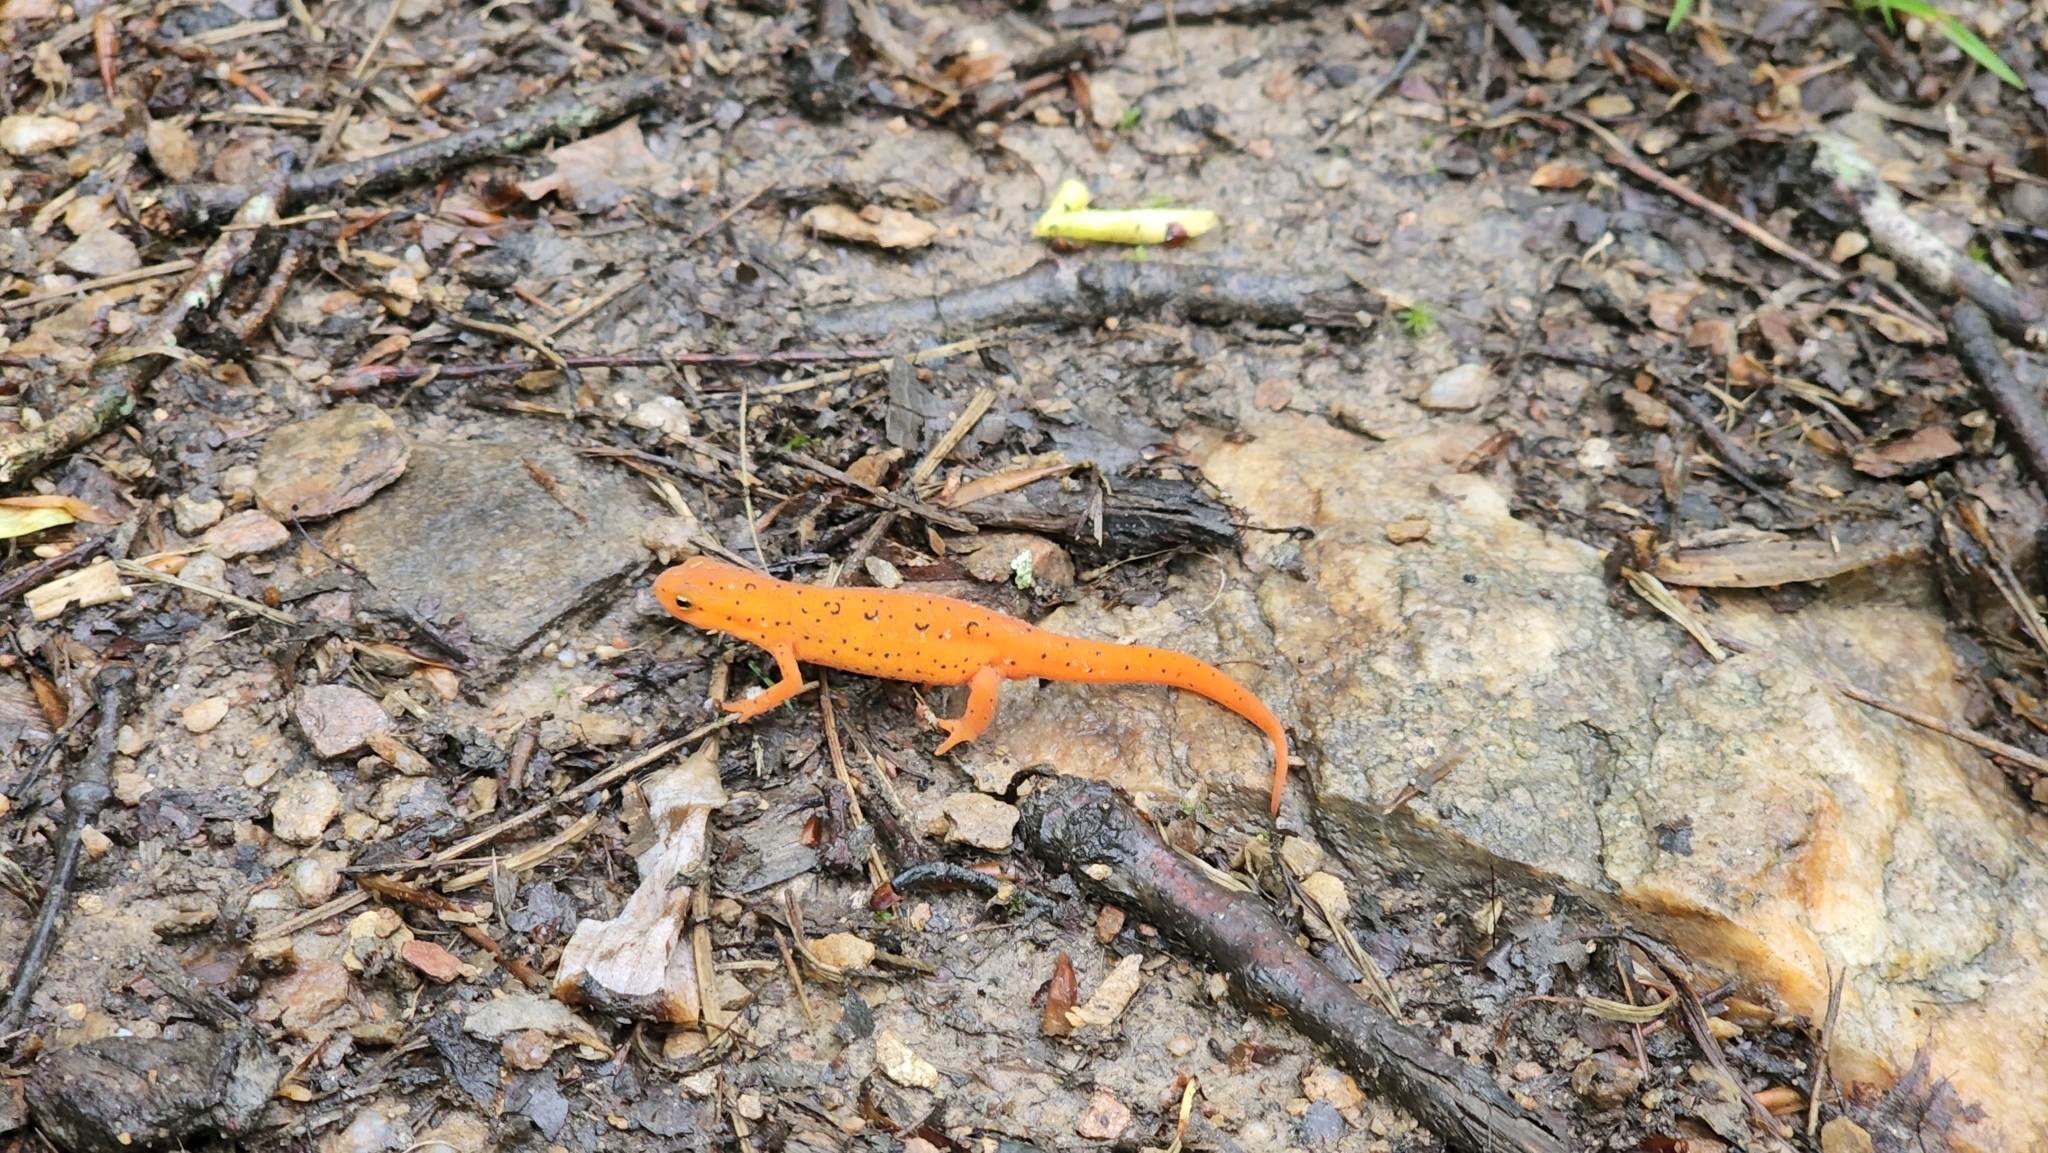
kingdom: Animalia
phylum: Chordata
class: Amphibia
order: Caudata
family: Salamandridae
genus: Notophthalmus
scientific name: Notophthalmus viridescens
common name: Eastern newt
